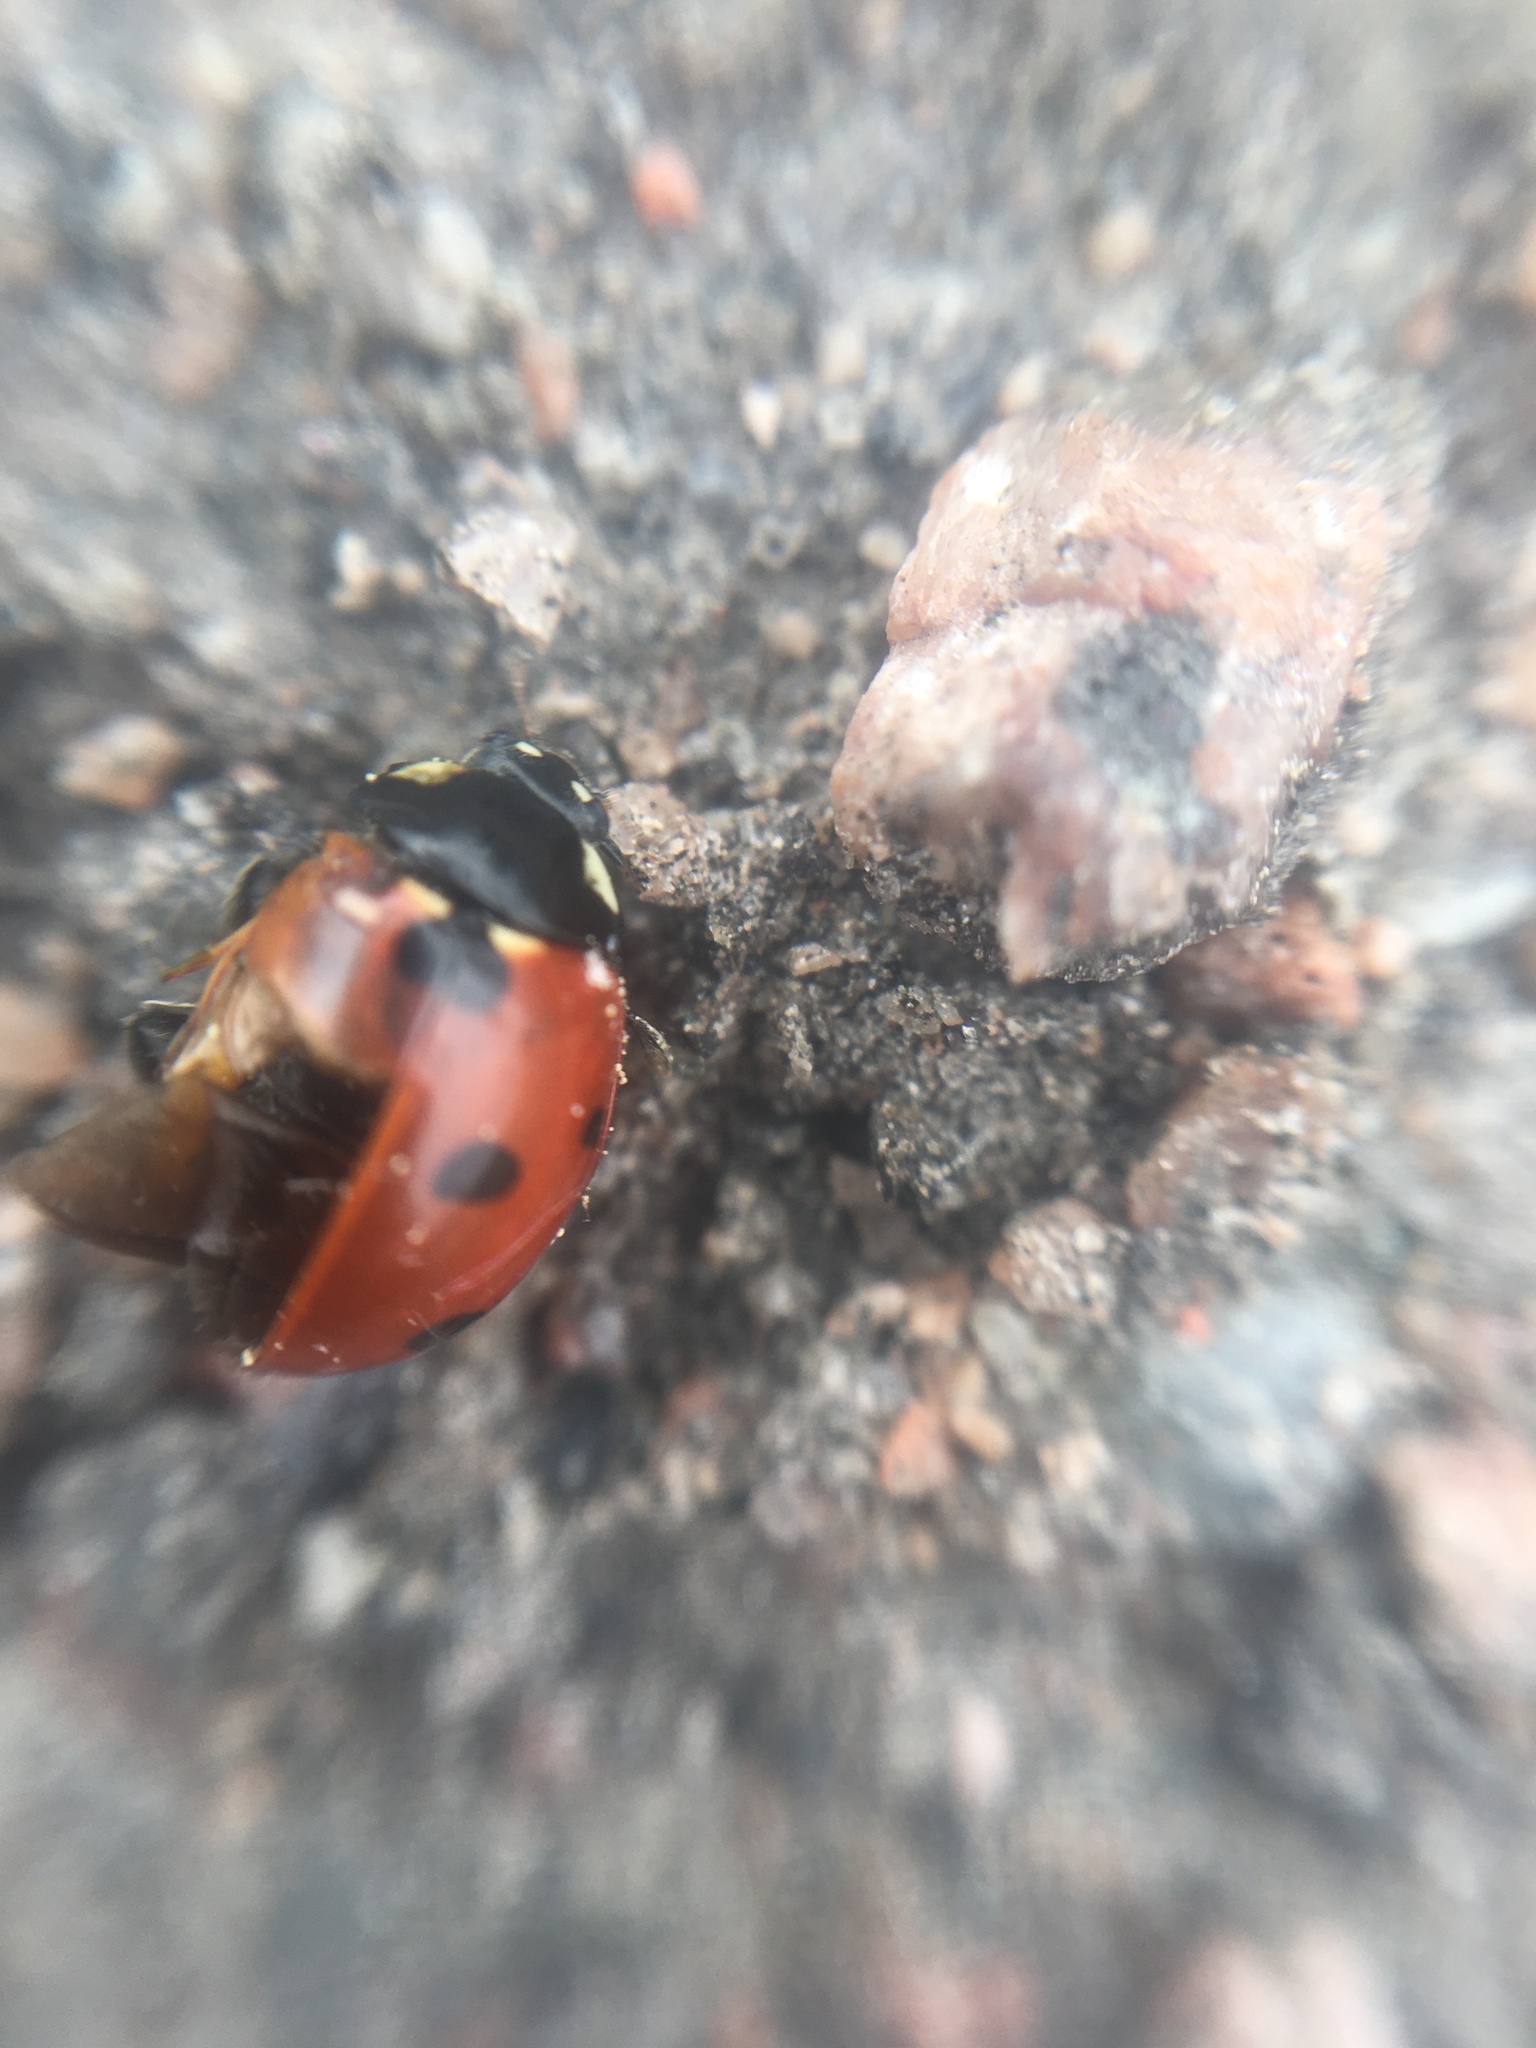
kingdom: Animalia
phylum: Arthropoda
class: Insecta
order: Coleoptera
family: Coccinellidae
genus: Coccinella
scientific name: Coccinella septempunctata
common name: Sevenspotted lady beetle
